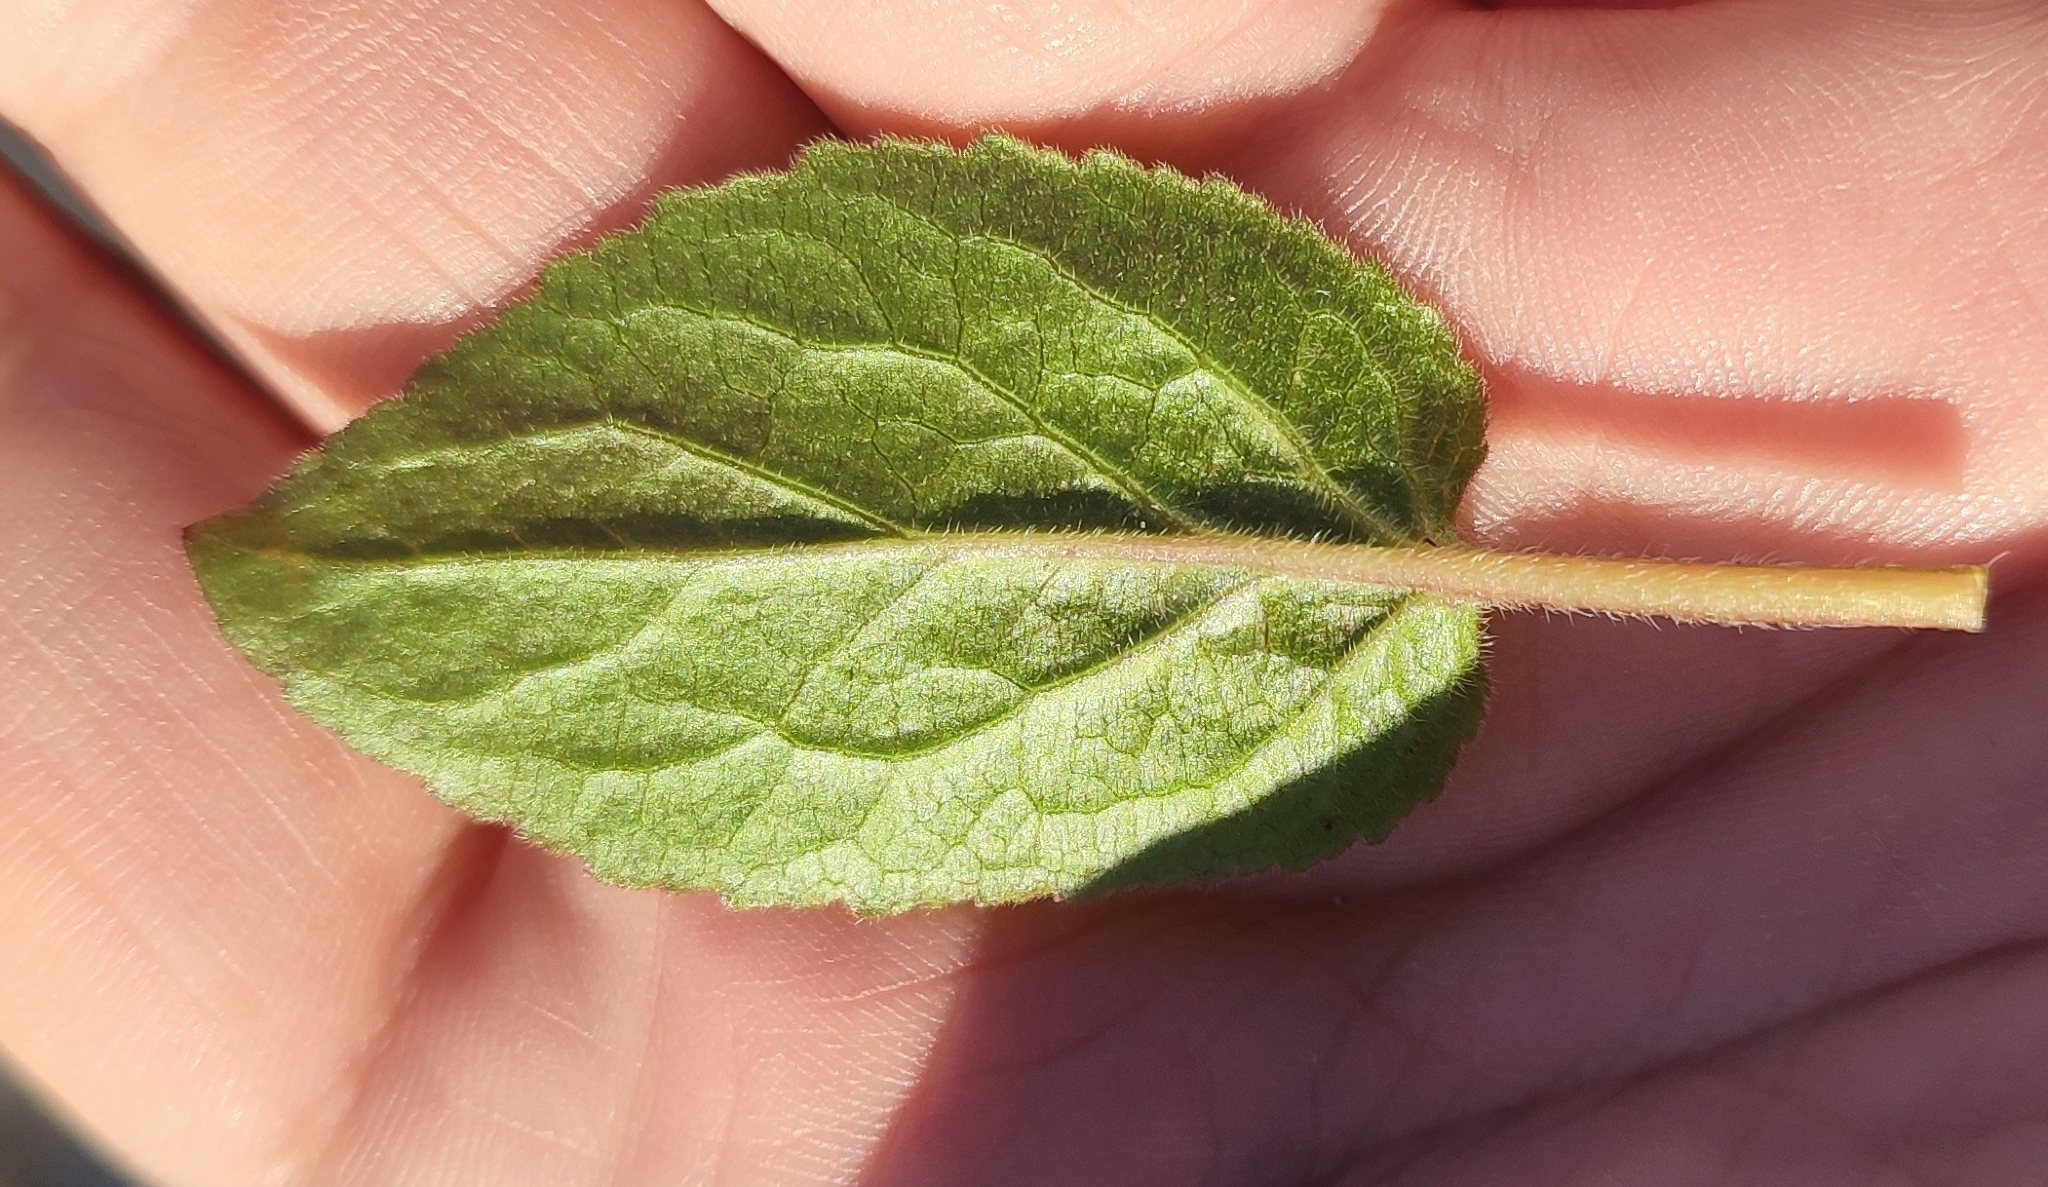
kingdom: Plantae
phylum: Tracheophyta
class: Magnoliopsida
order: Asterales
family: Campanulaceae
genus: Campanula
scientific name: Campanula rapunculoides
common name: Creeping bellflower
